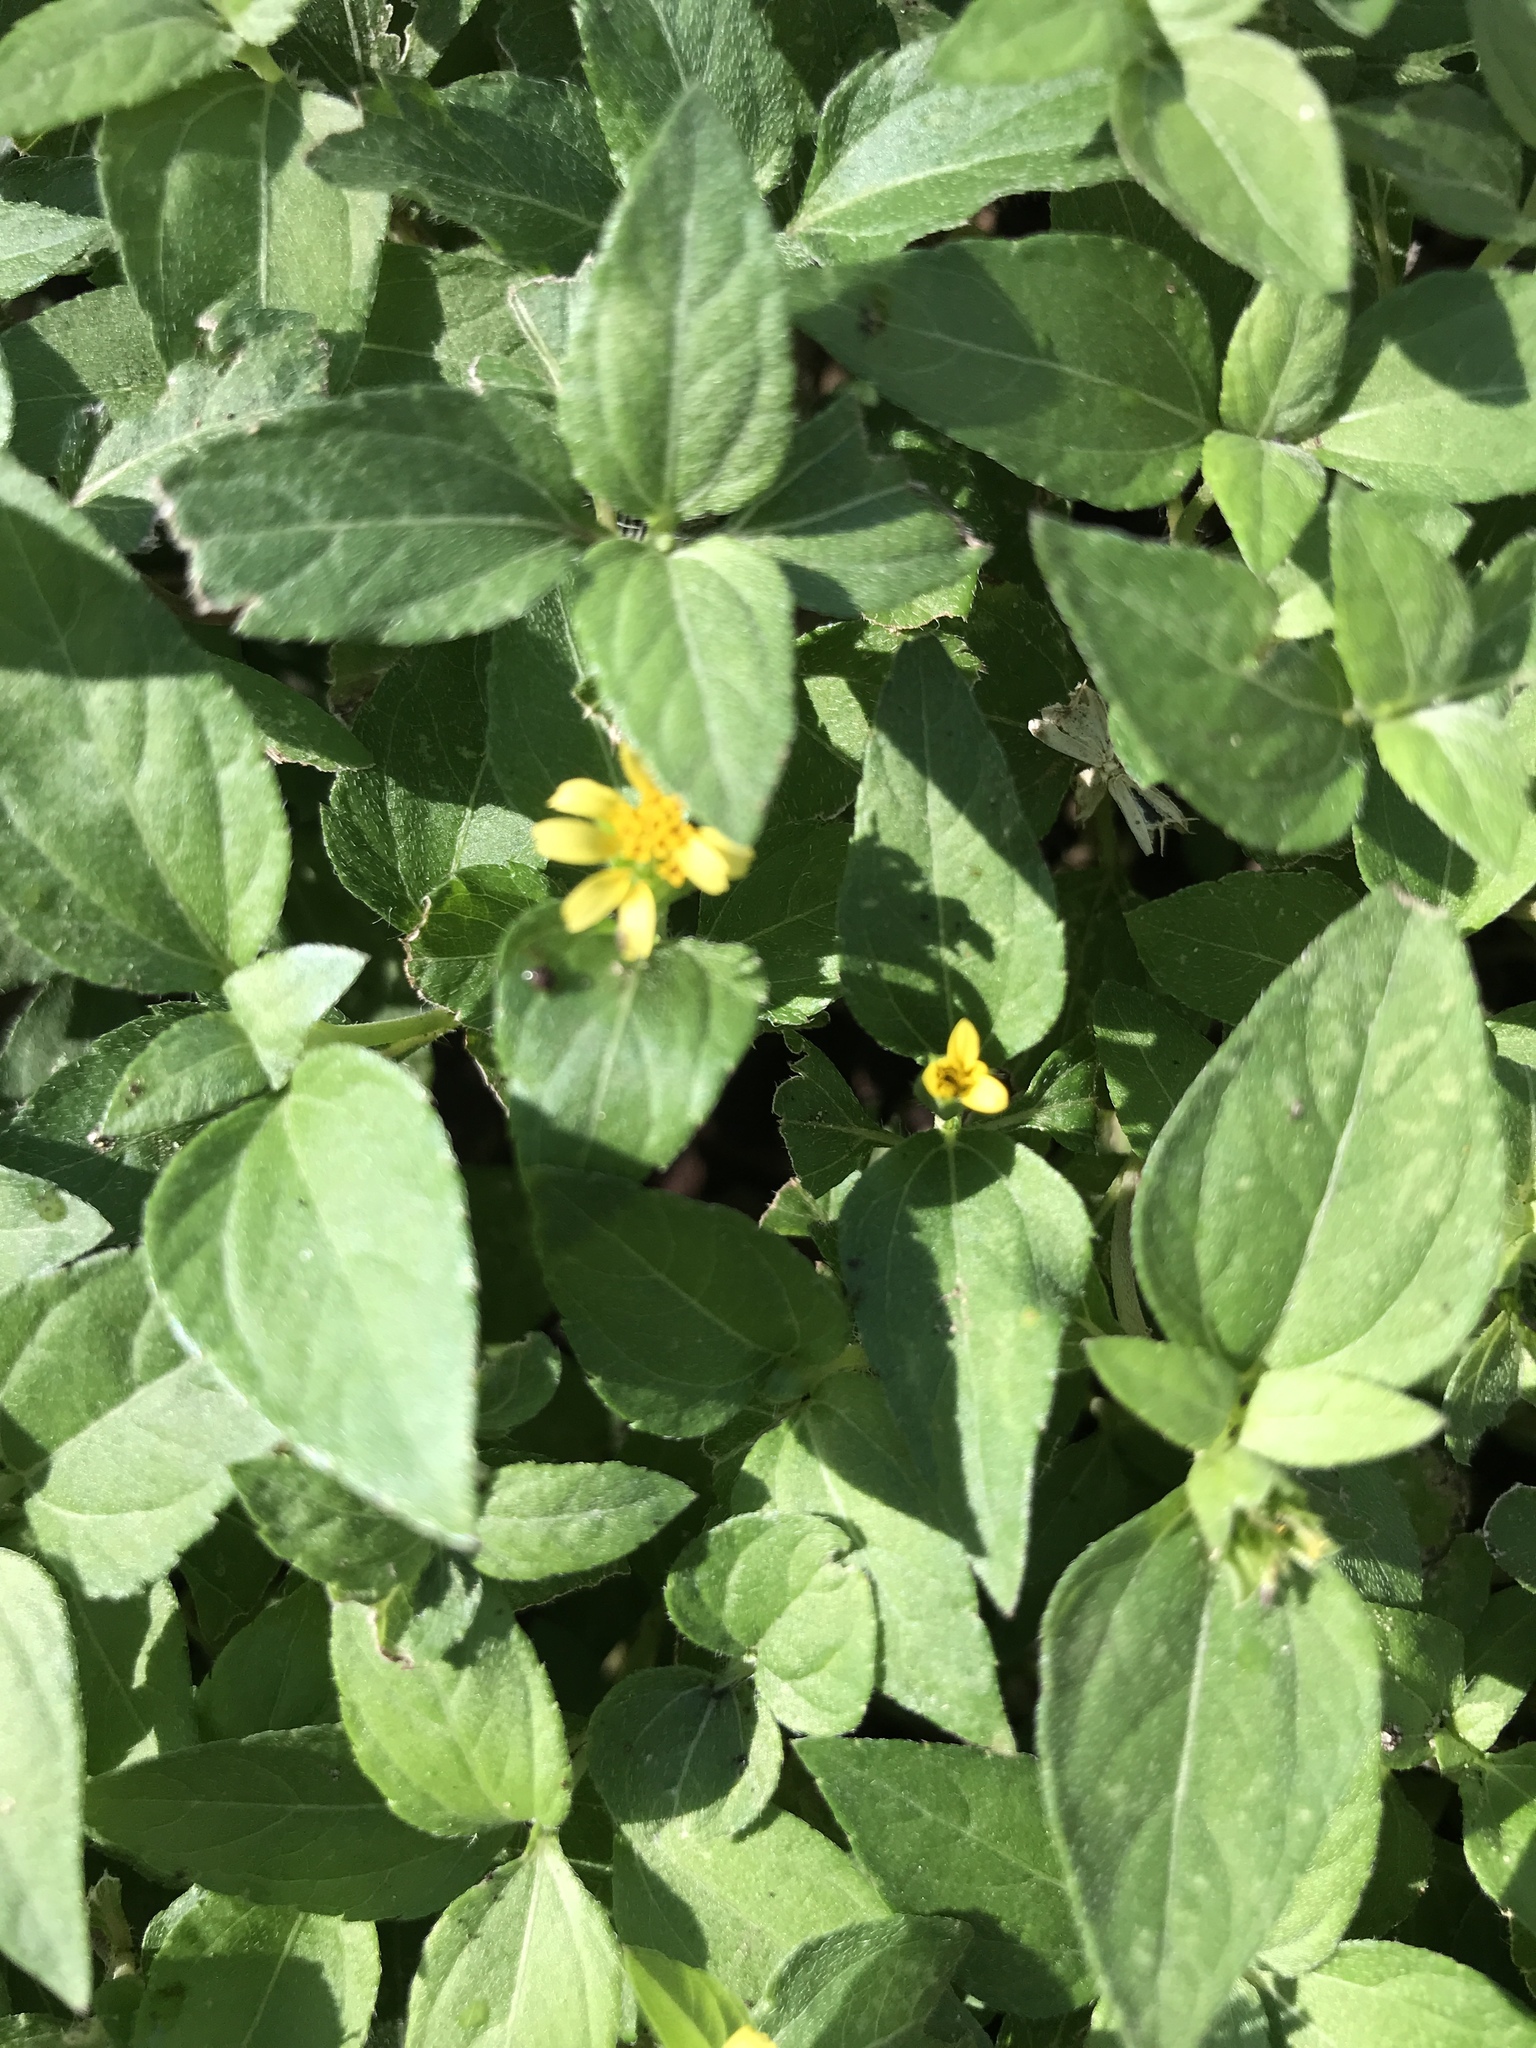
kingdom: Plantae
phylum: Tracheophyta
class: Magnoliopsida
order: Asterales
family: Asteraceae
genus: Calyptocarpus
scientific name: Calyptocarpus vialis
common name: Straggler daisy
